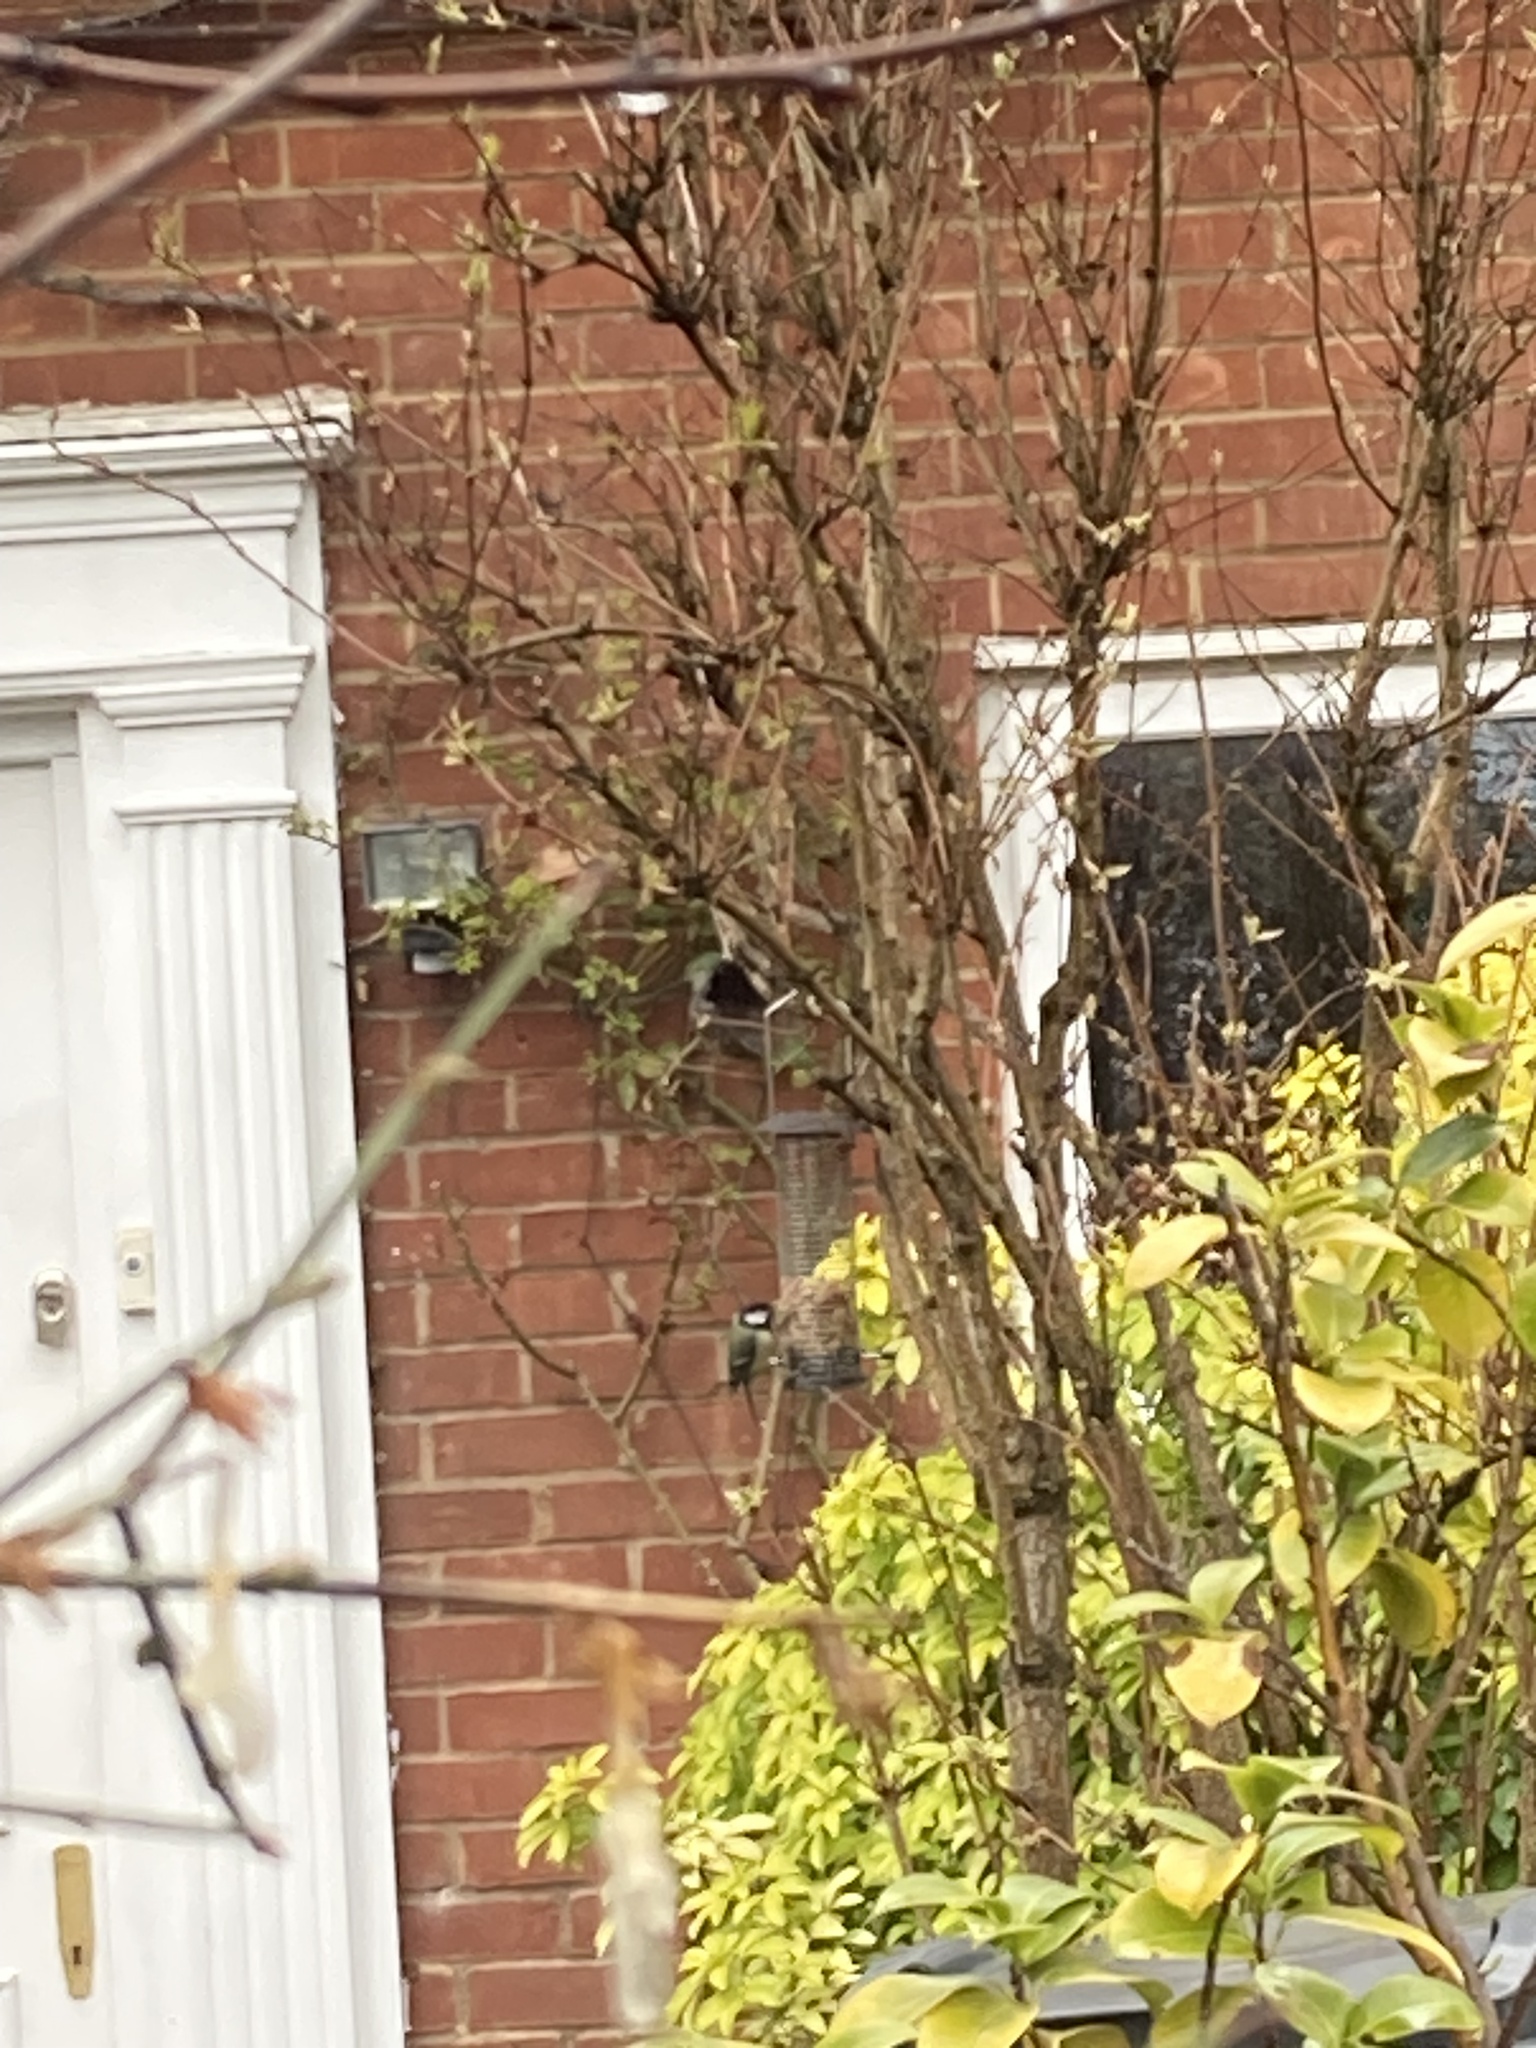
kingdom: Animalia
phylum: Chordata
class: Aves
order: Passeriformes
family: Paridae
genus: Parus
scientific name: Parus major
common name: Great tit
